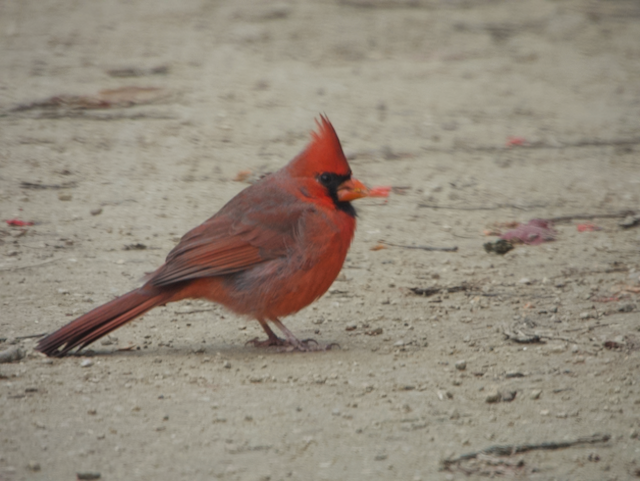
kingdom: Animalia
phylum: Chordata
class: Aves
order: Passeriformes
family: Cardinalidae
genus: Cardinalis
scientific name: Cardinalis cardinalis
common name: Northern cardinal
